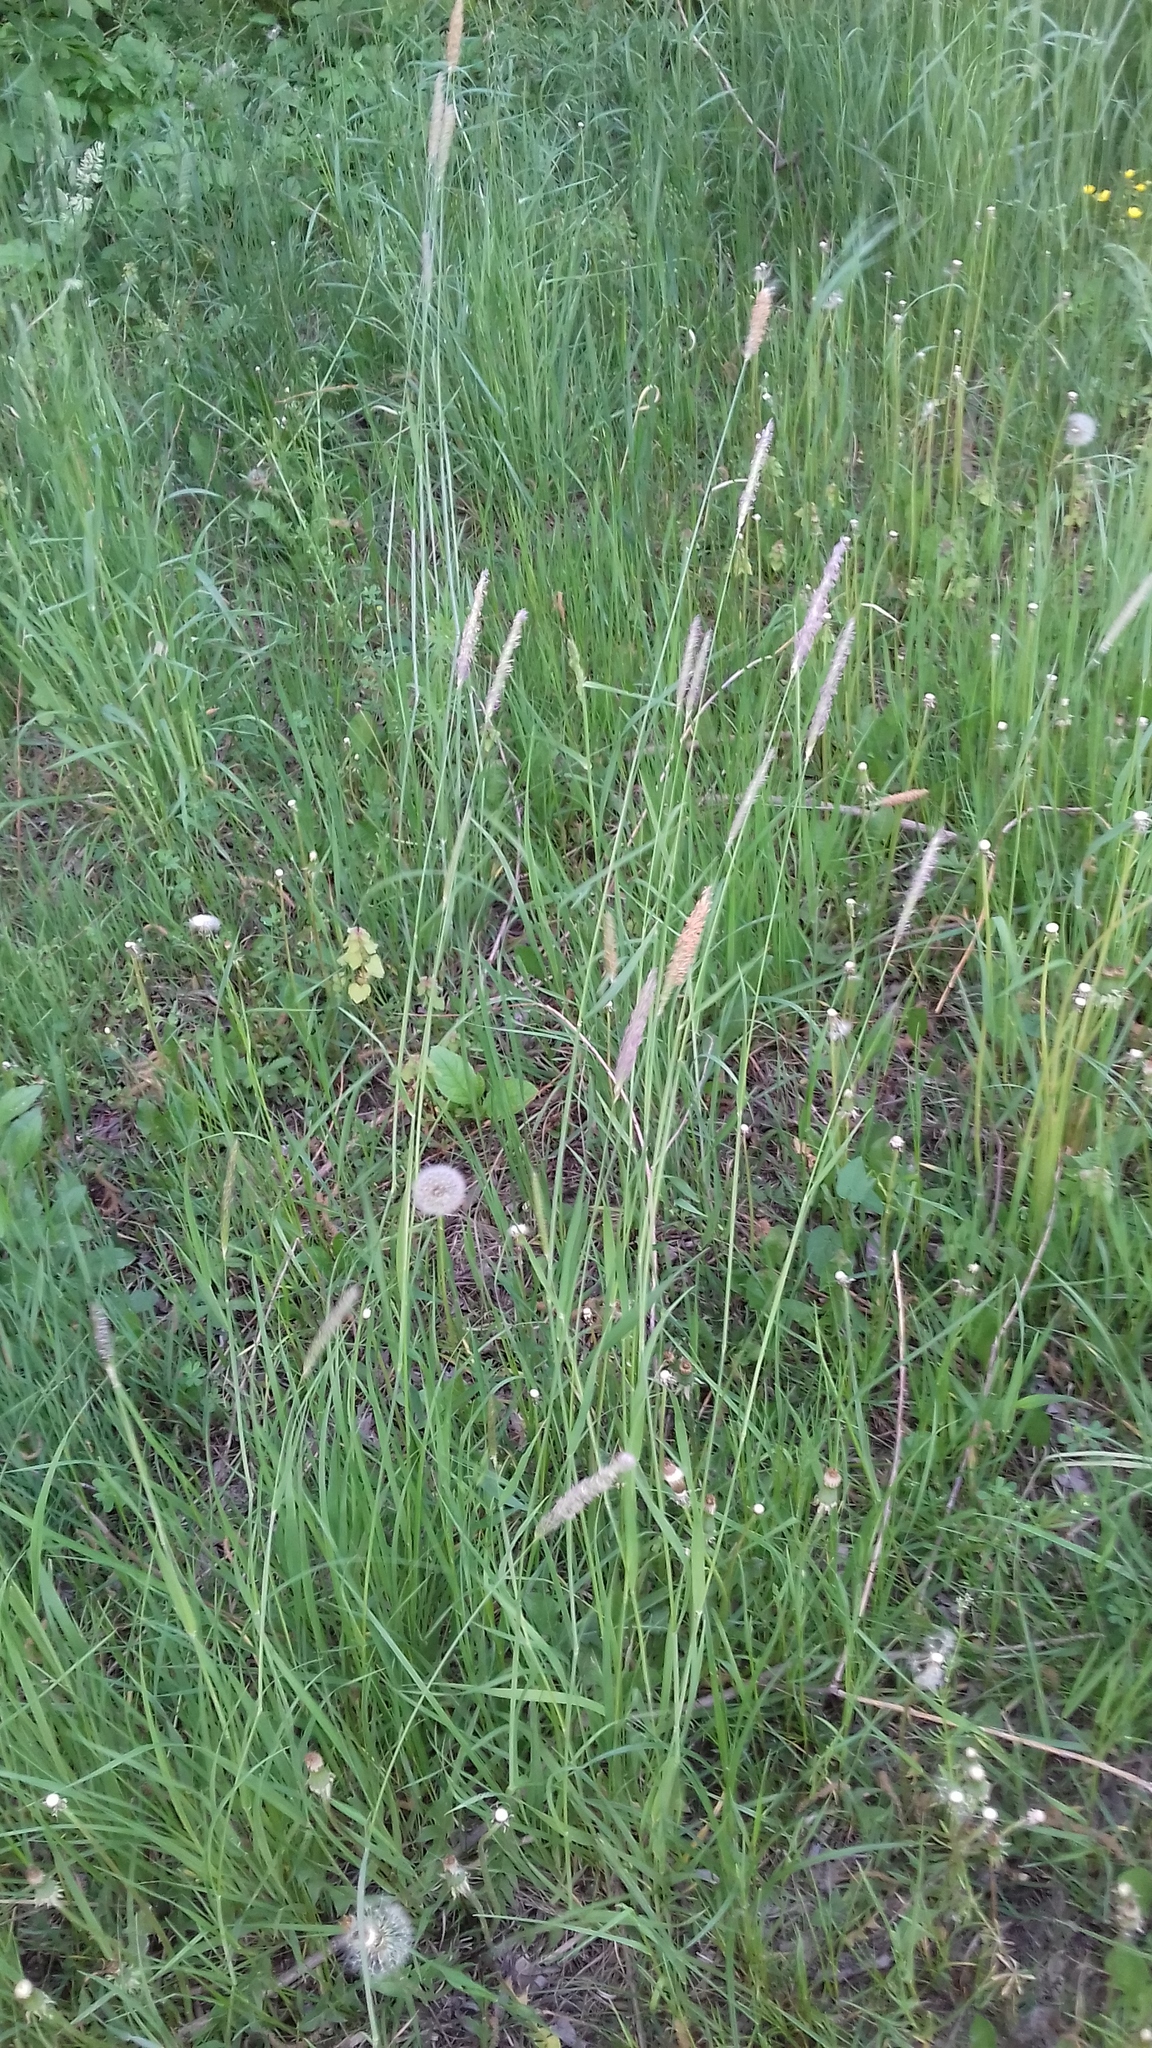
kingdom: Plantae
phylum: Tracheophyta
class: Liliopsida
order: Poales
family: Poaceae
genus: Alopecurus
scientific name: Alopecurus pratensis
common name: Meadow foxtail
